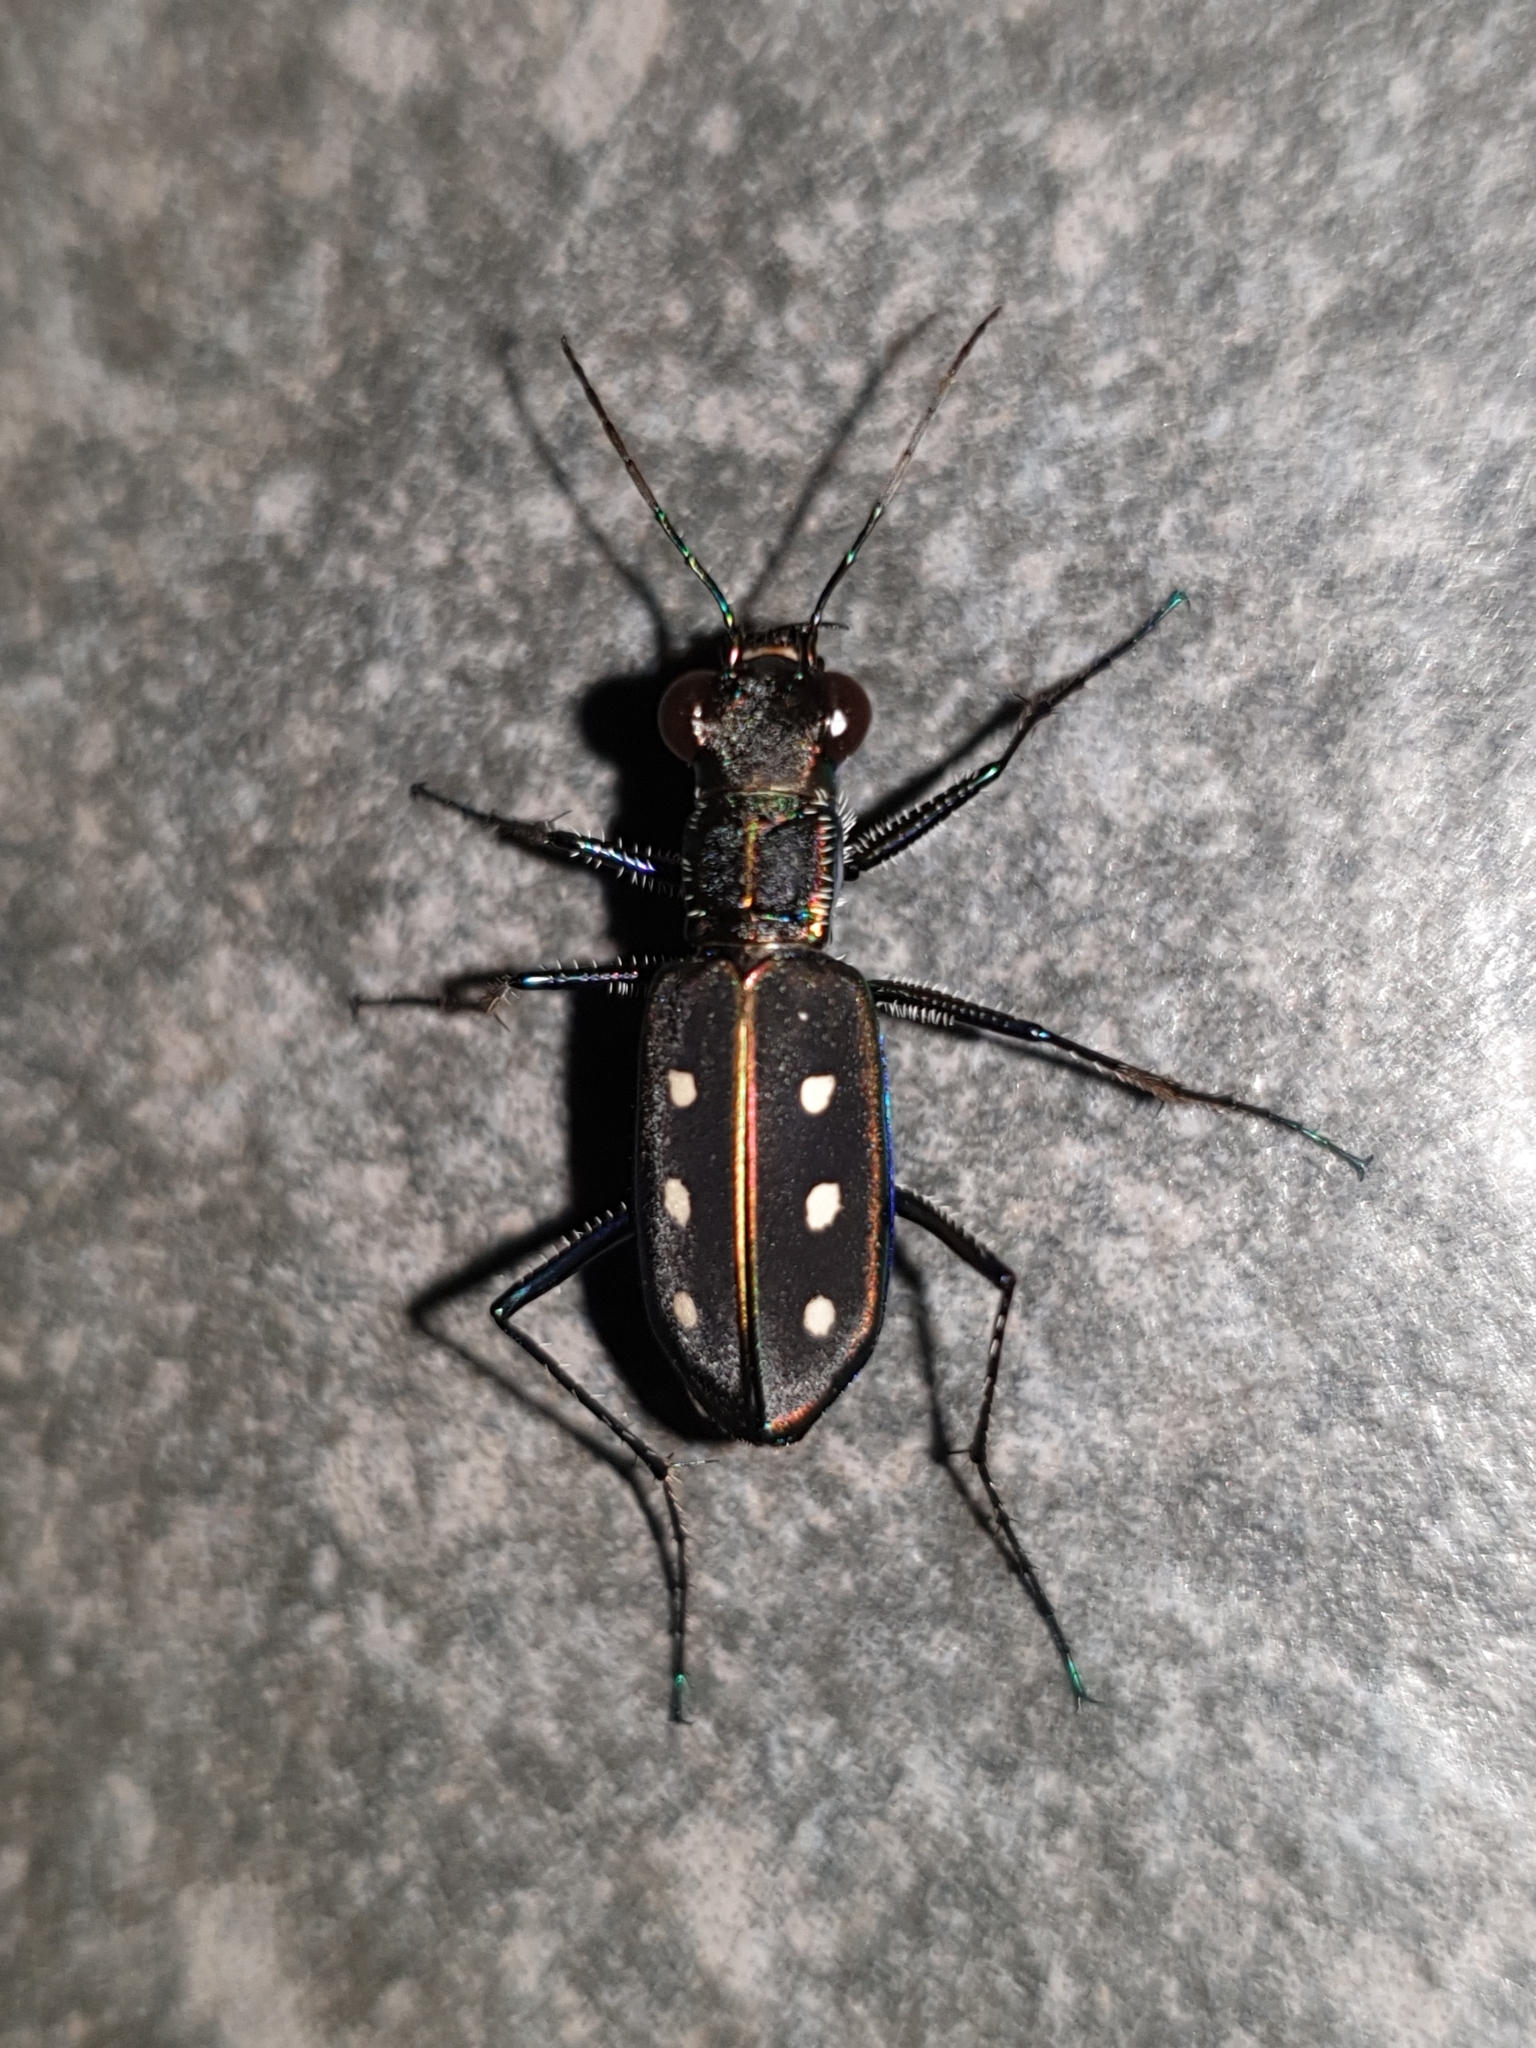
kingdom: Animalia
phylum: Arthropoda
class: Insecta
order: Coleoptera
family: Carabidae
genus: Cicindela
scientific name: Cicindela sexpunctata
